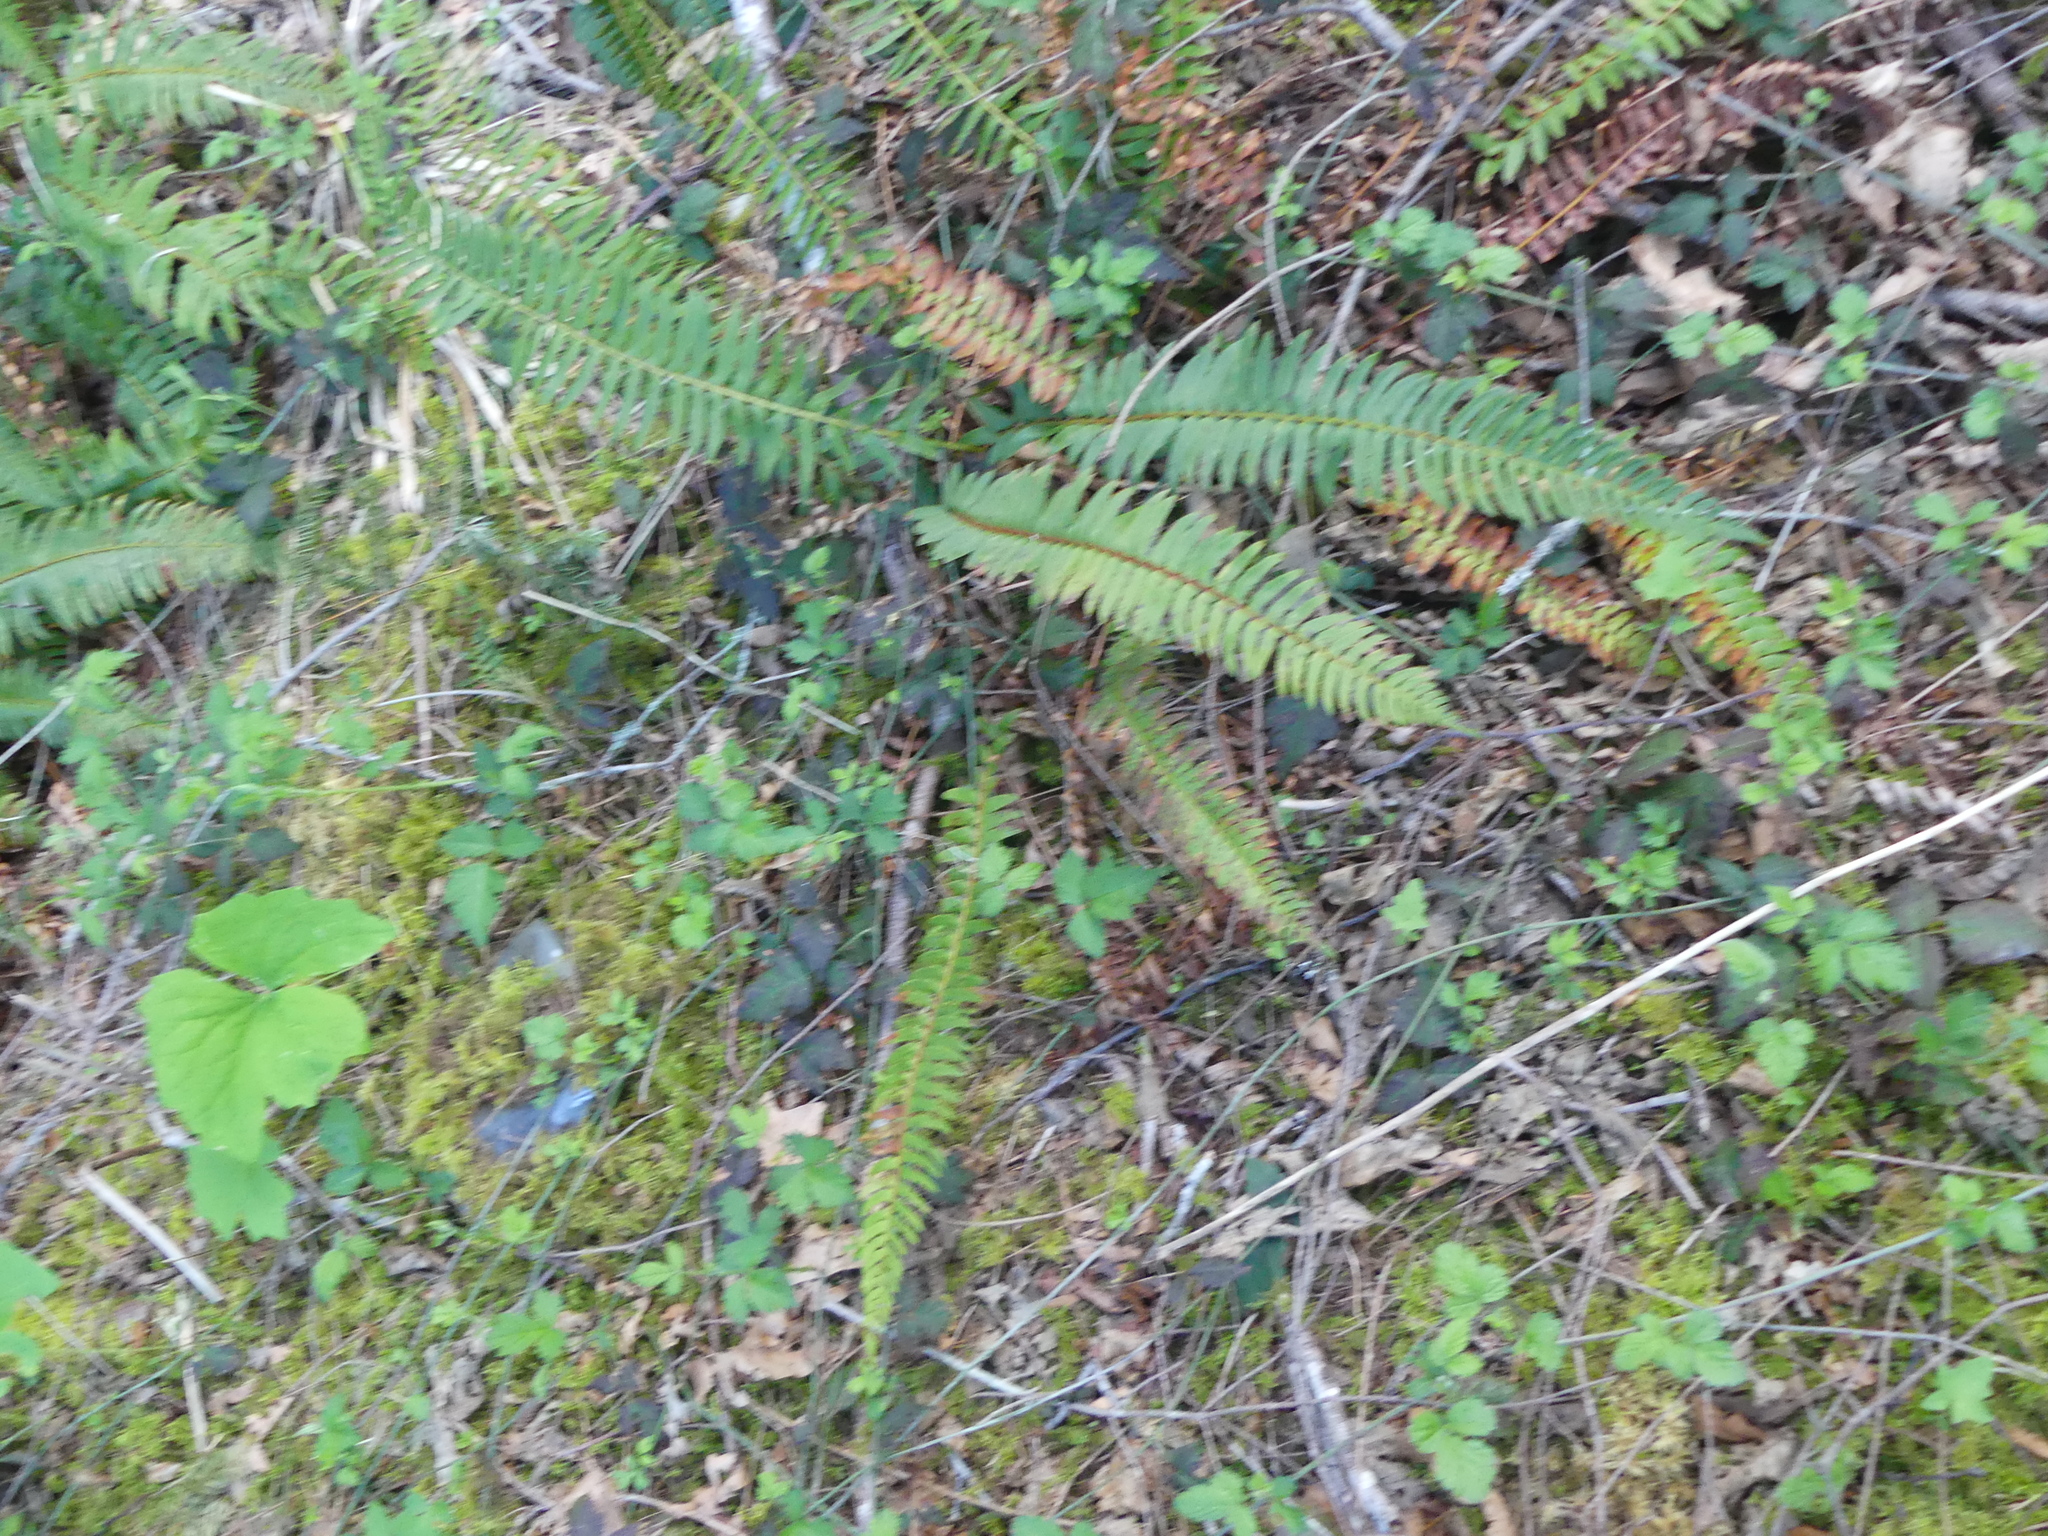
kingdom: Plantae
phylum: Tracheophyta
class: Polypodiopsida
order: Polypodiales
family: Dryopteridaceae
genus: Polystichum
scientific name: Polystichum munitum
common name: Western sword-fern
